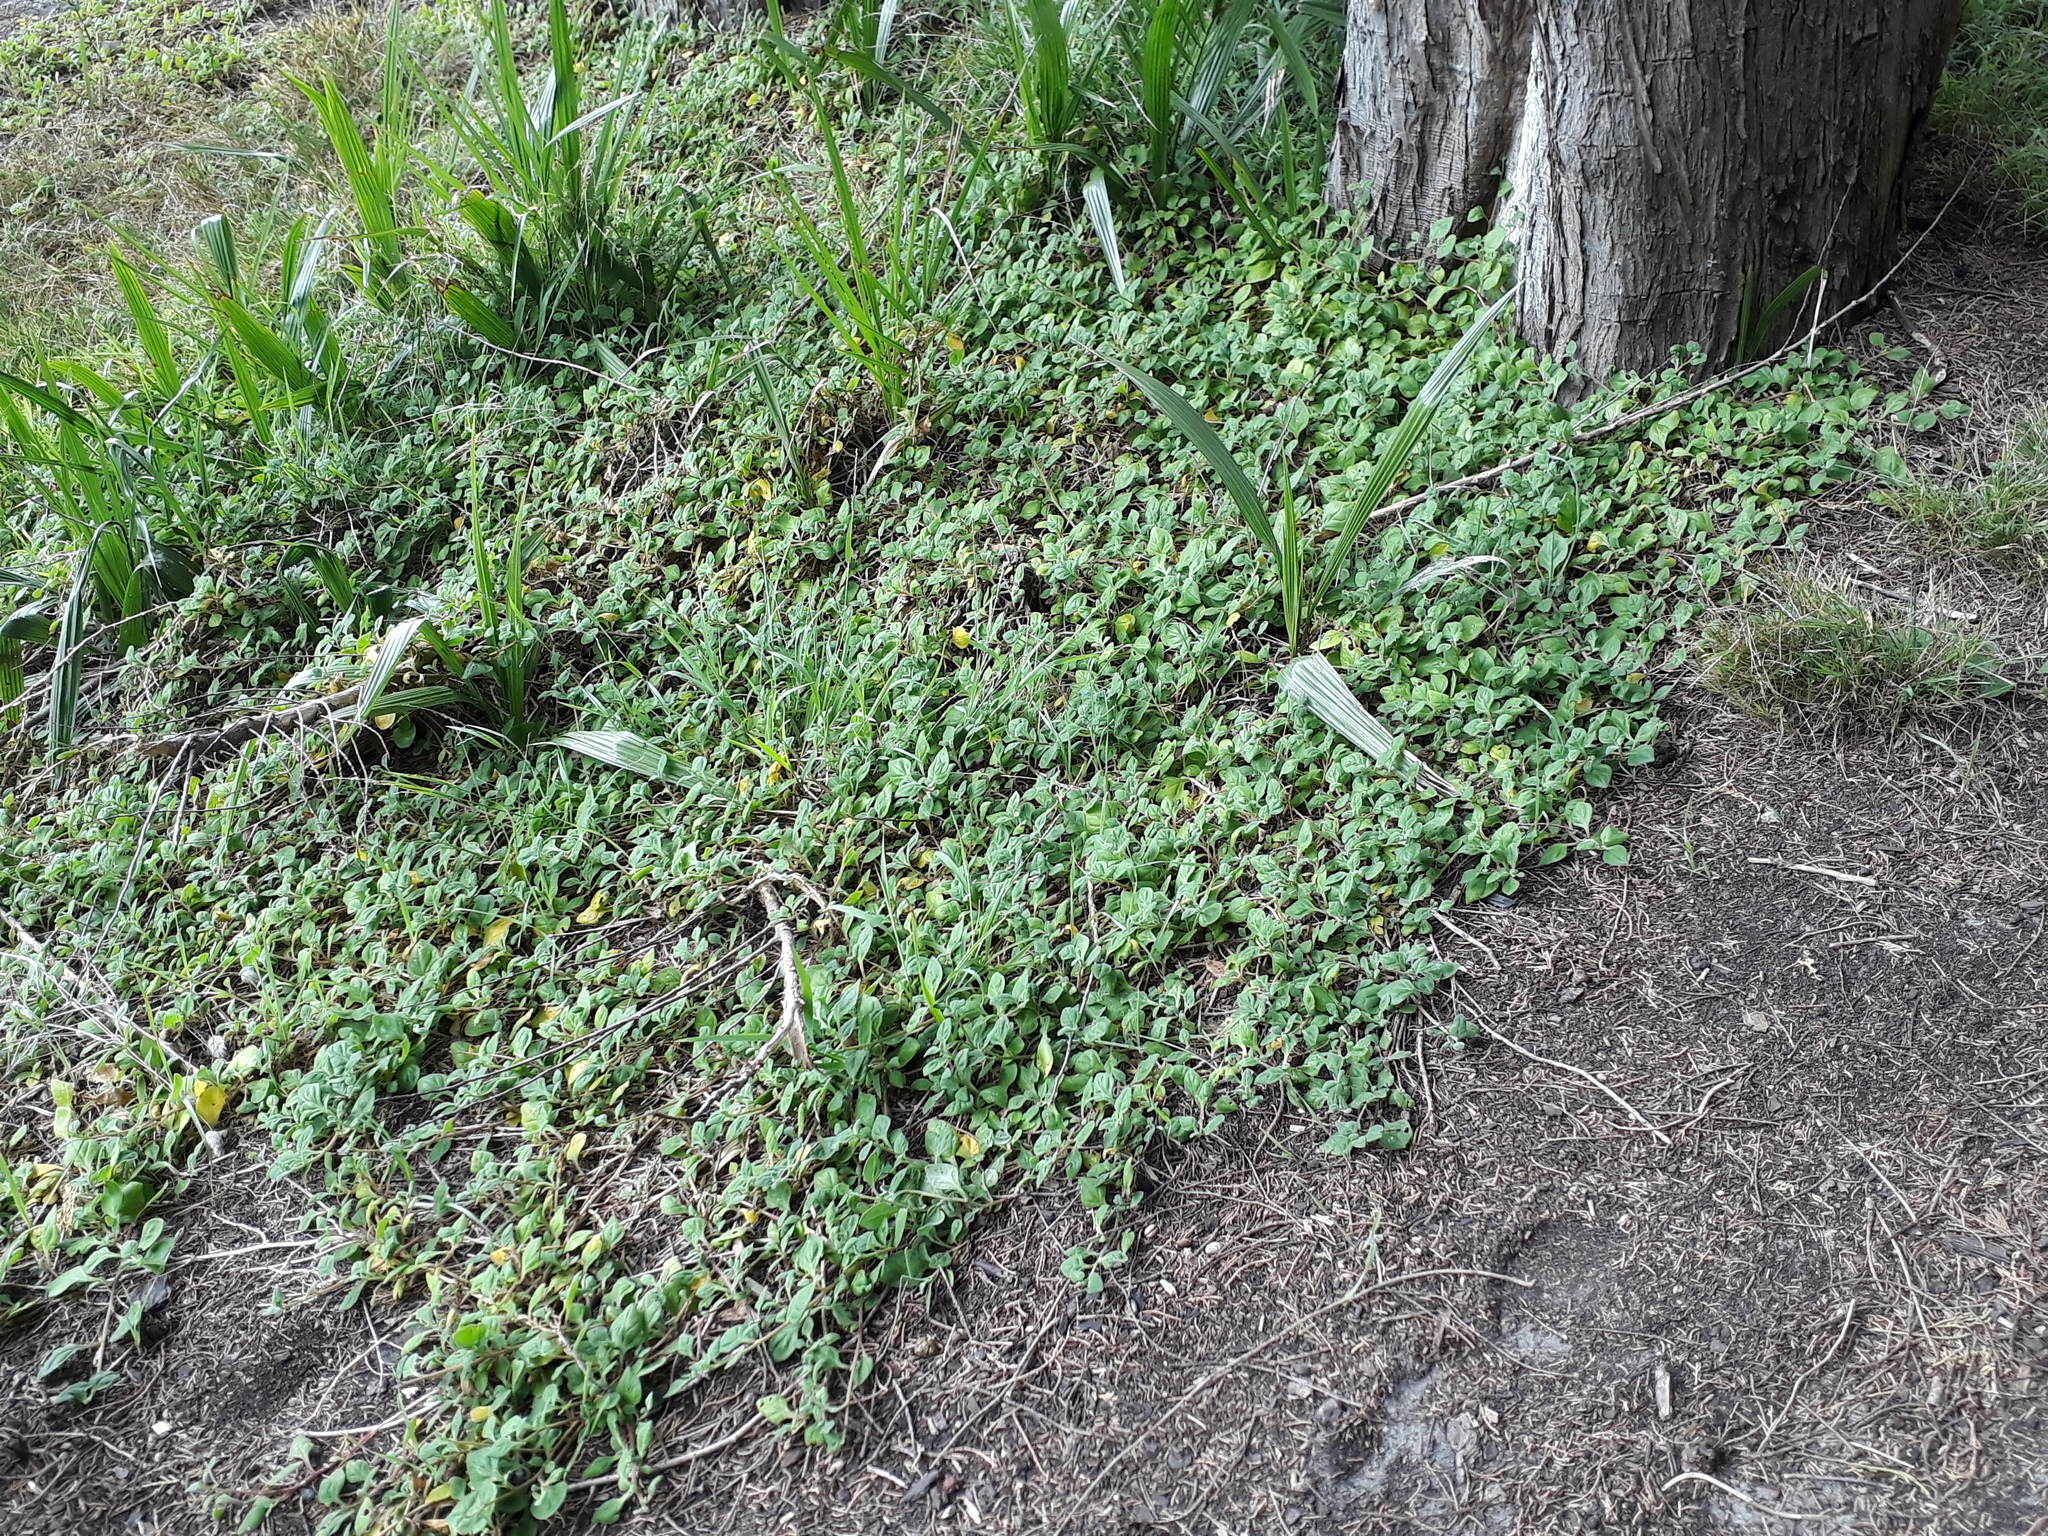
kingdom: Plantae
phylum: Tracheophyta
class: Magnoliopsida
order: Caryophyllales
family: Aizoaceae
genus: Tetragonia
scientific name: Tetragonia implexicoma
